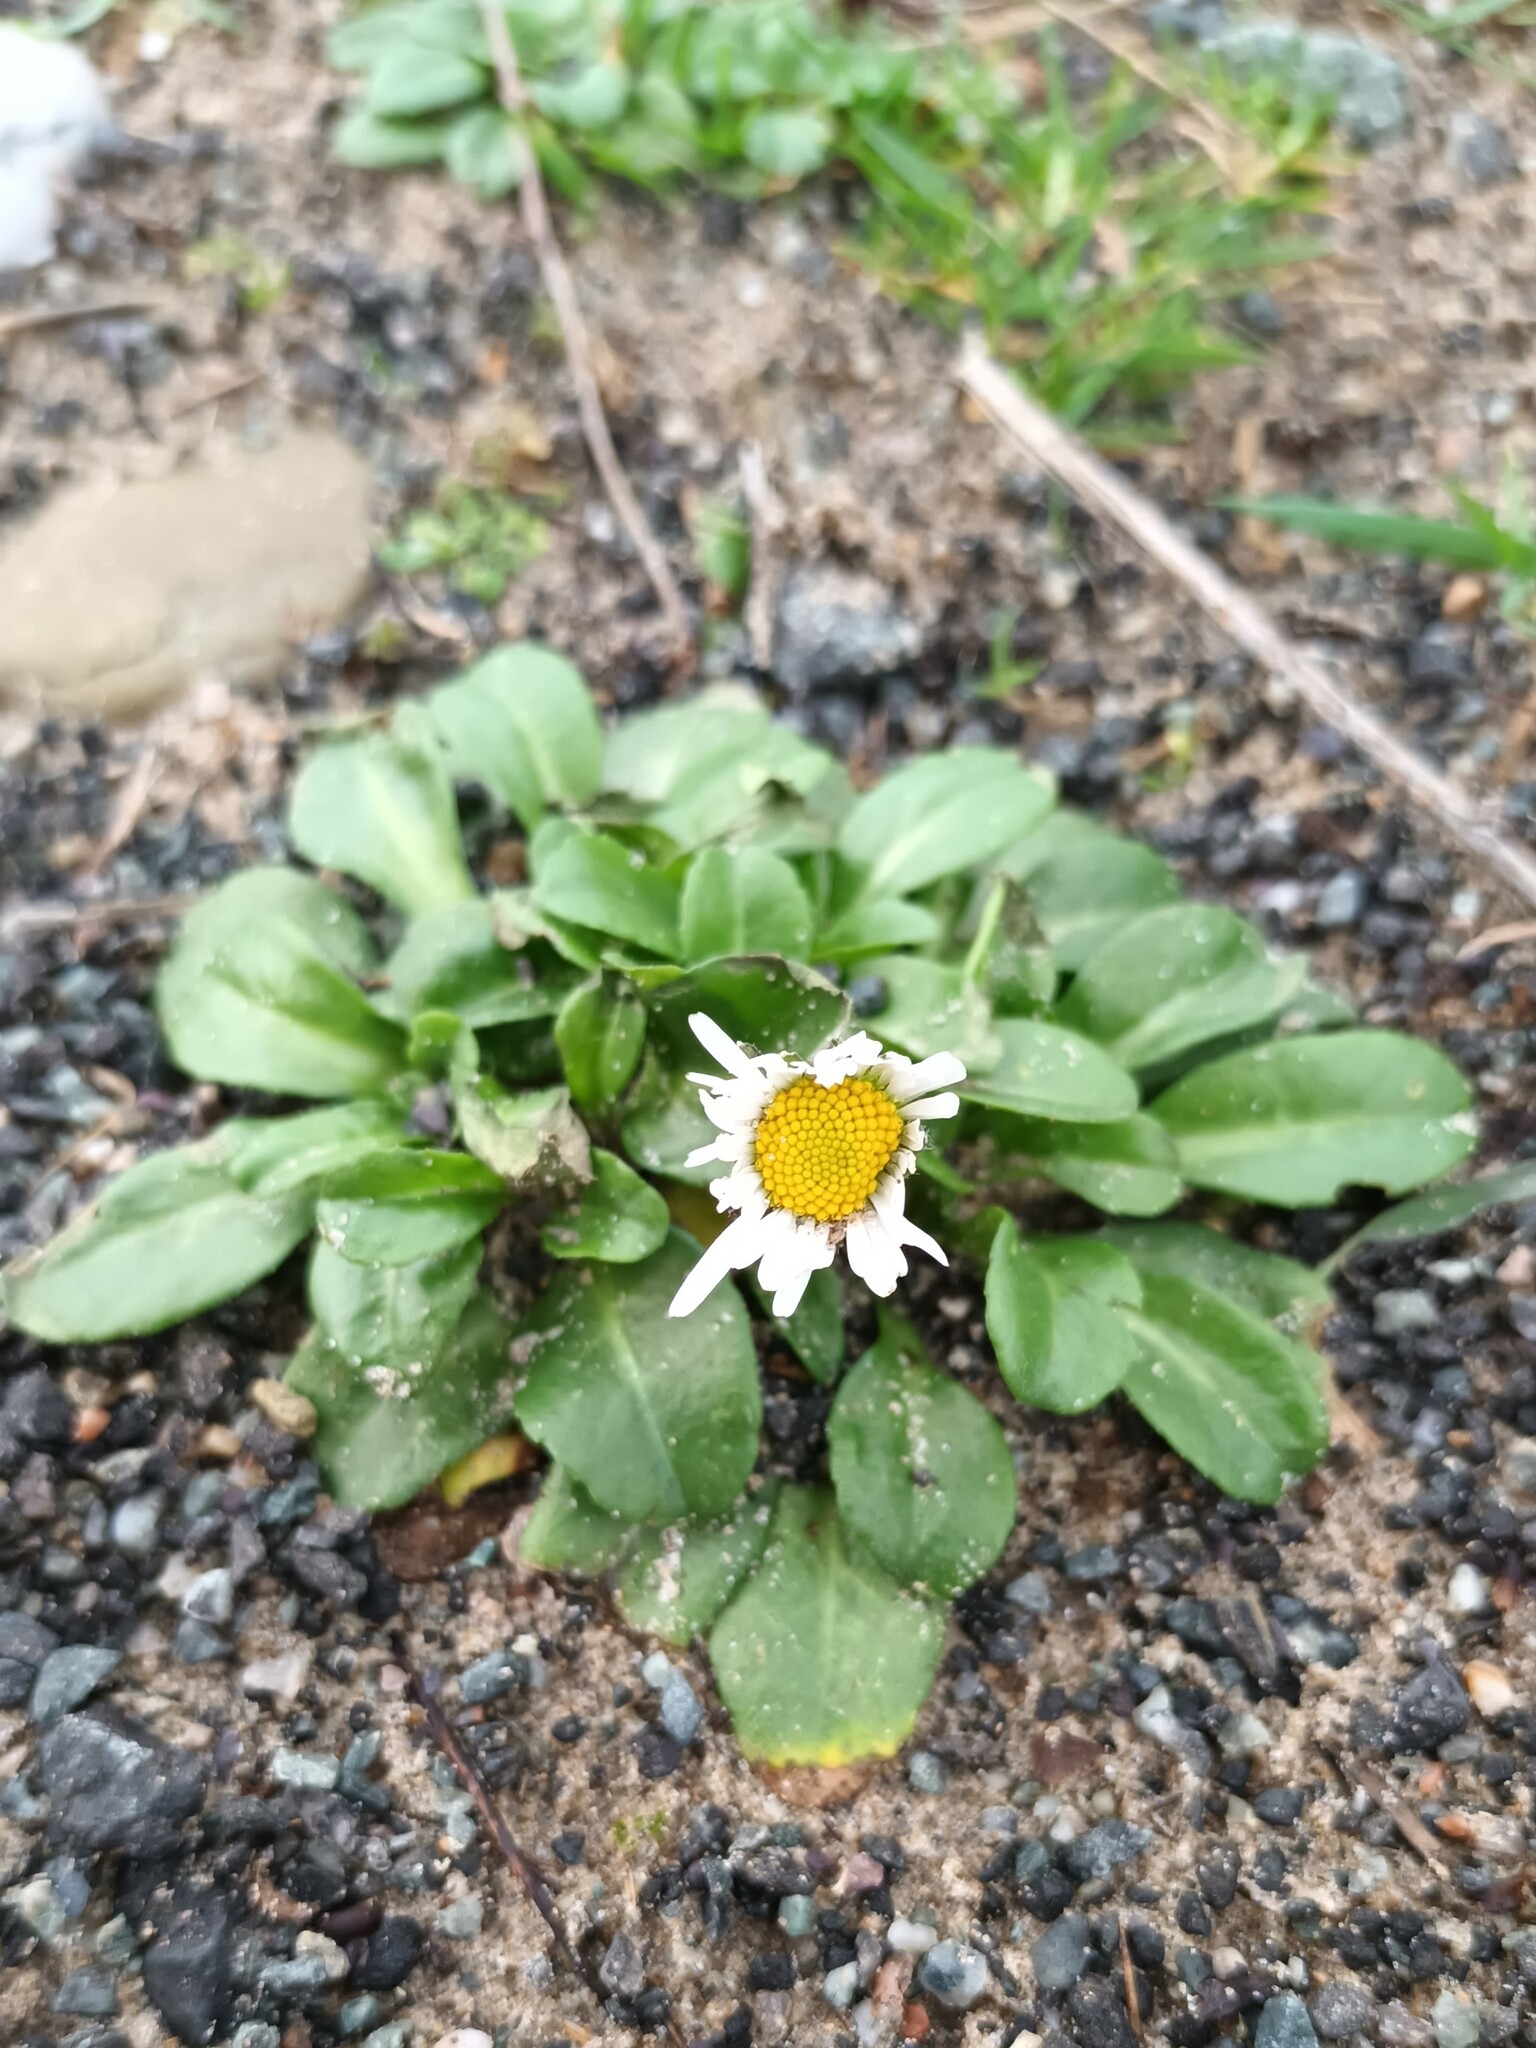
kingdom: Plantae
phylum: Tracheophyta
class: Magnoliopsida
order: Asterales
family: Asteraceae
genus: Bellis
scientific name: Bellis perennis
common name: Lawndaisy
